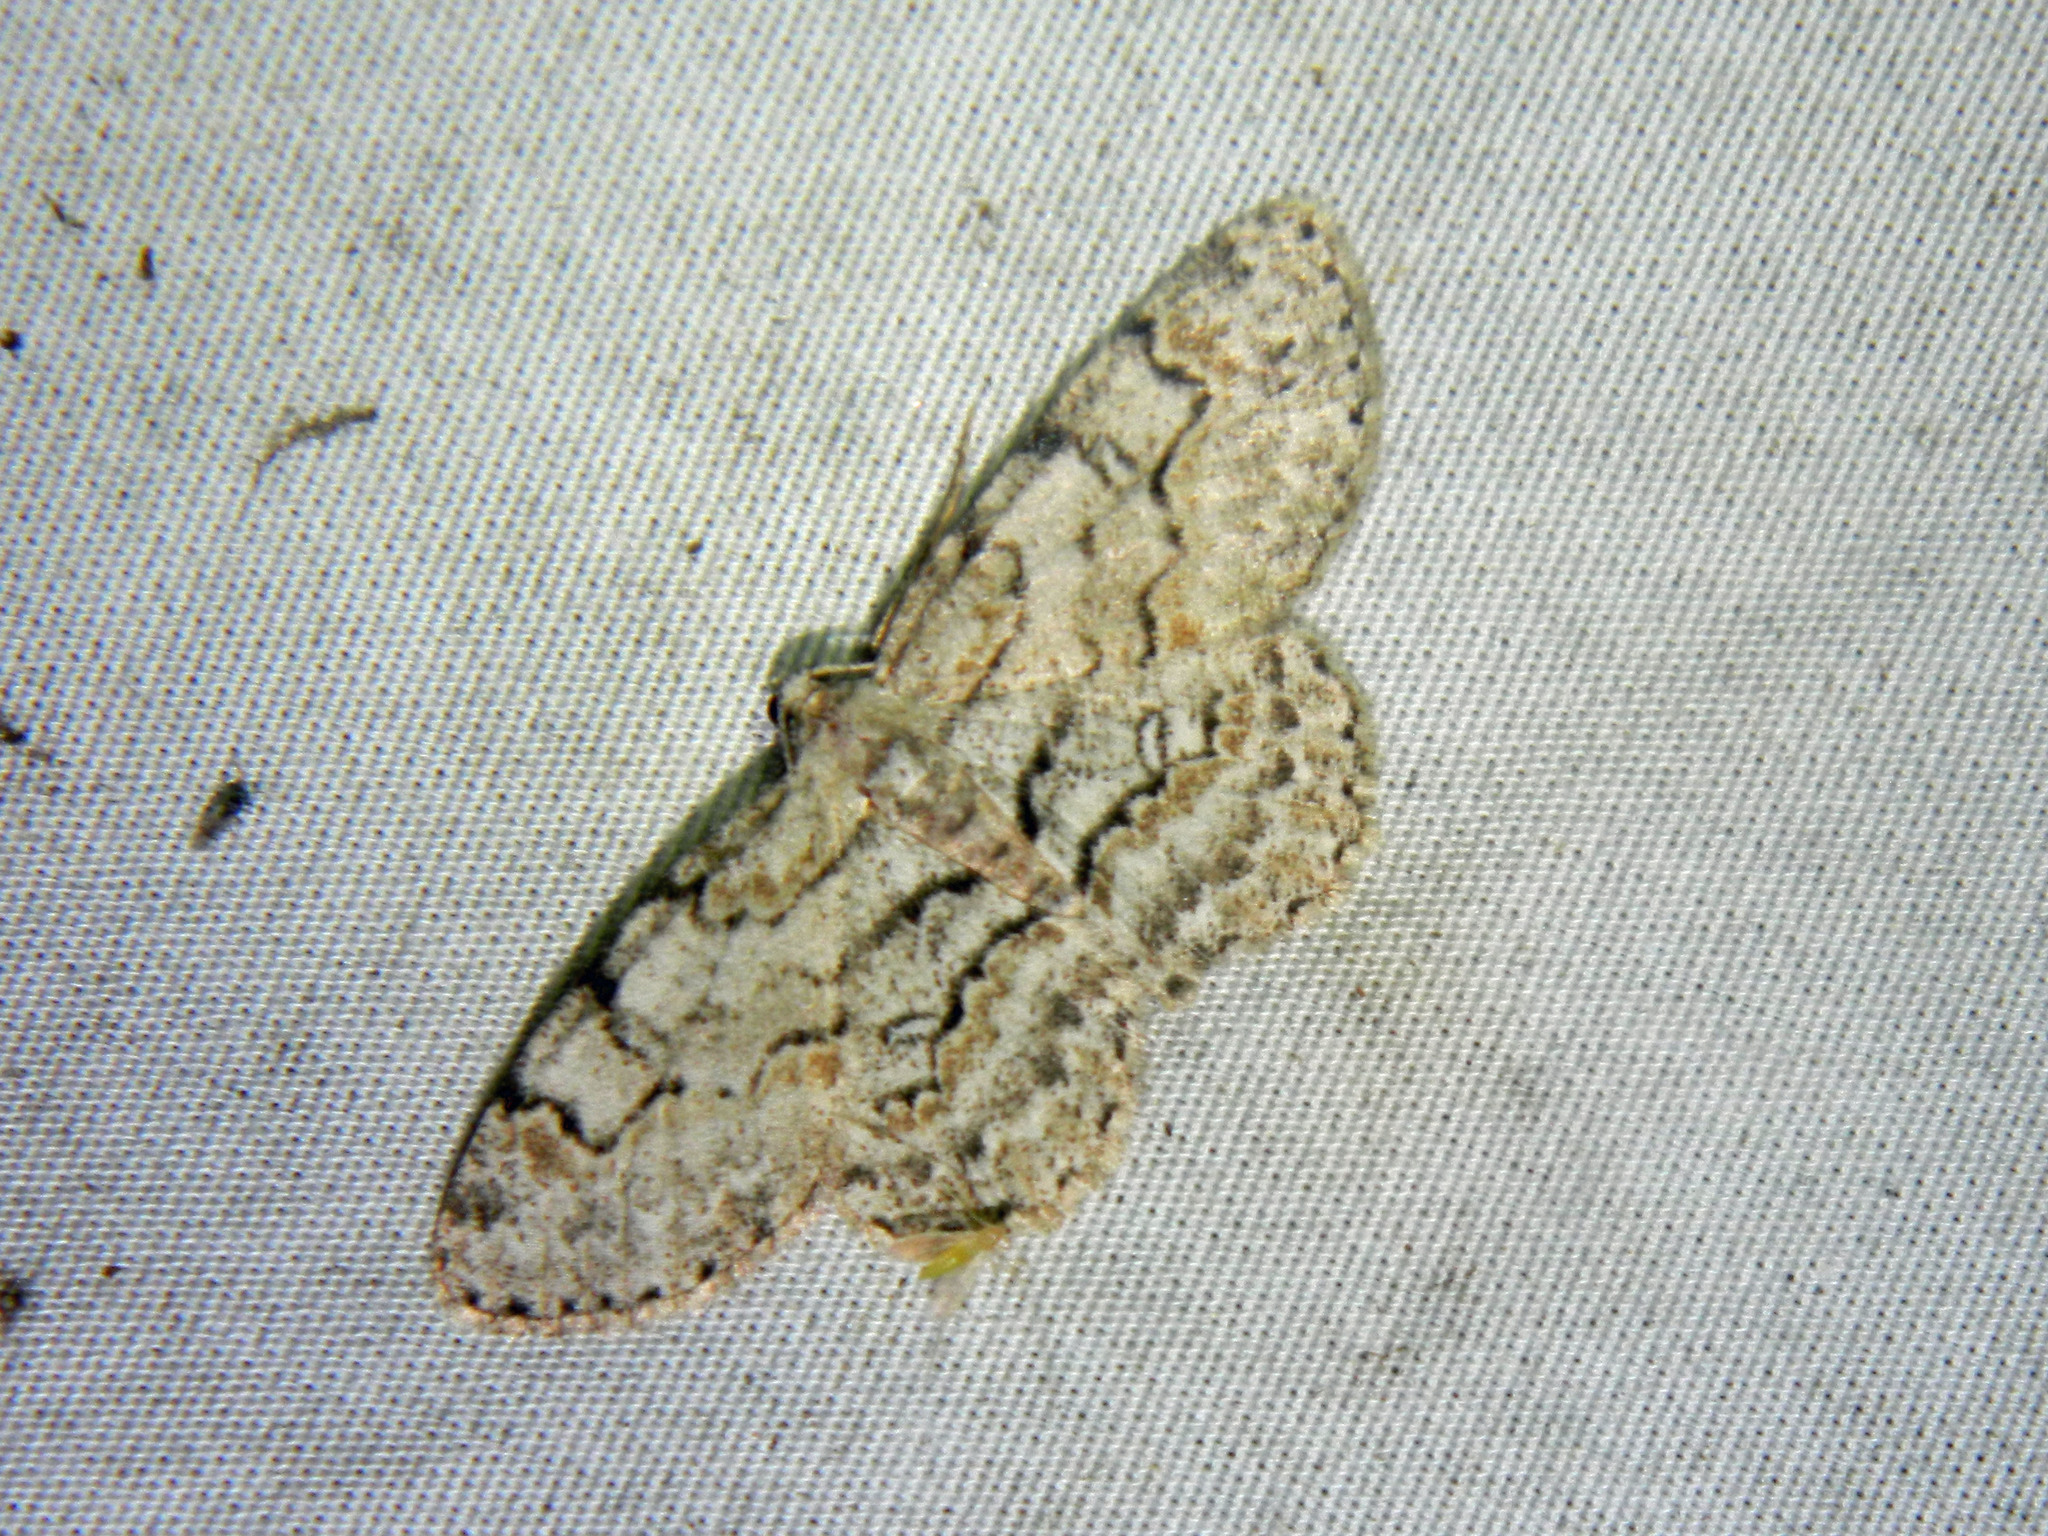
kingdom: Animalia
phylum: Arthropoda
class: Insecta
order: Lepidoptera
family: Geometridae
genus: Iridopsis
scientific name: Iridopsis ephyraria
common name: Pale-winged gray
